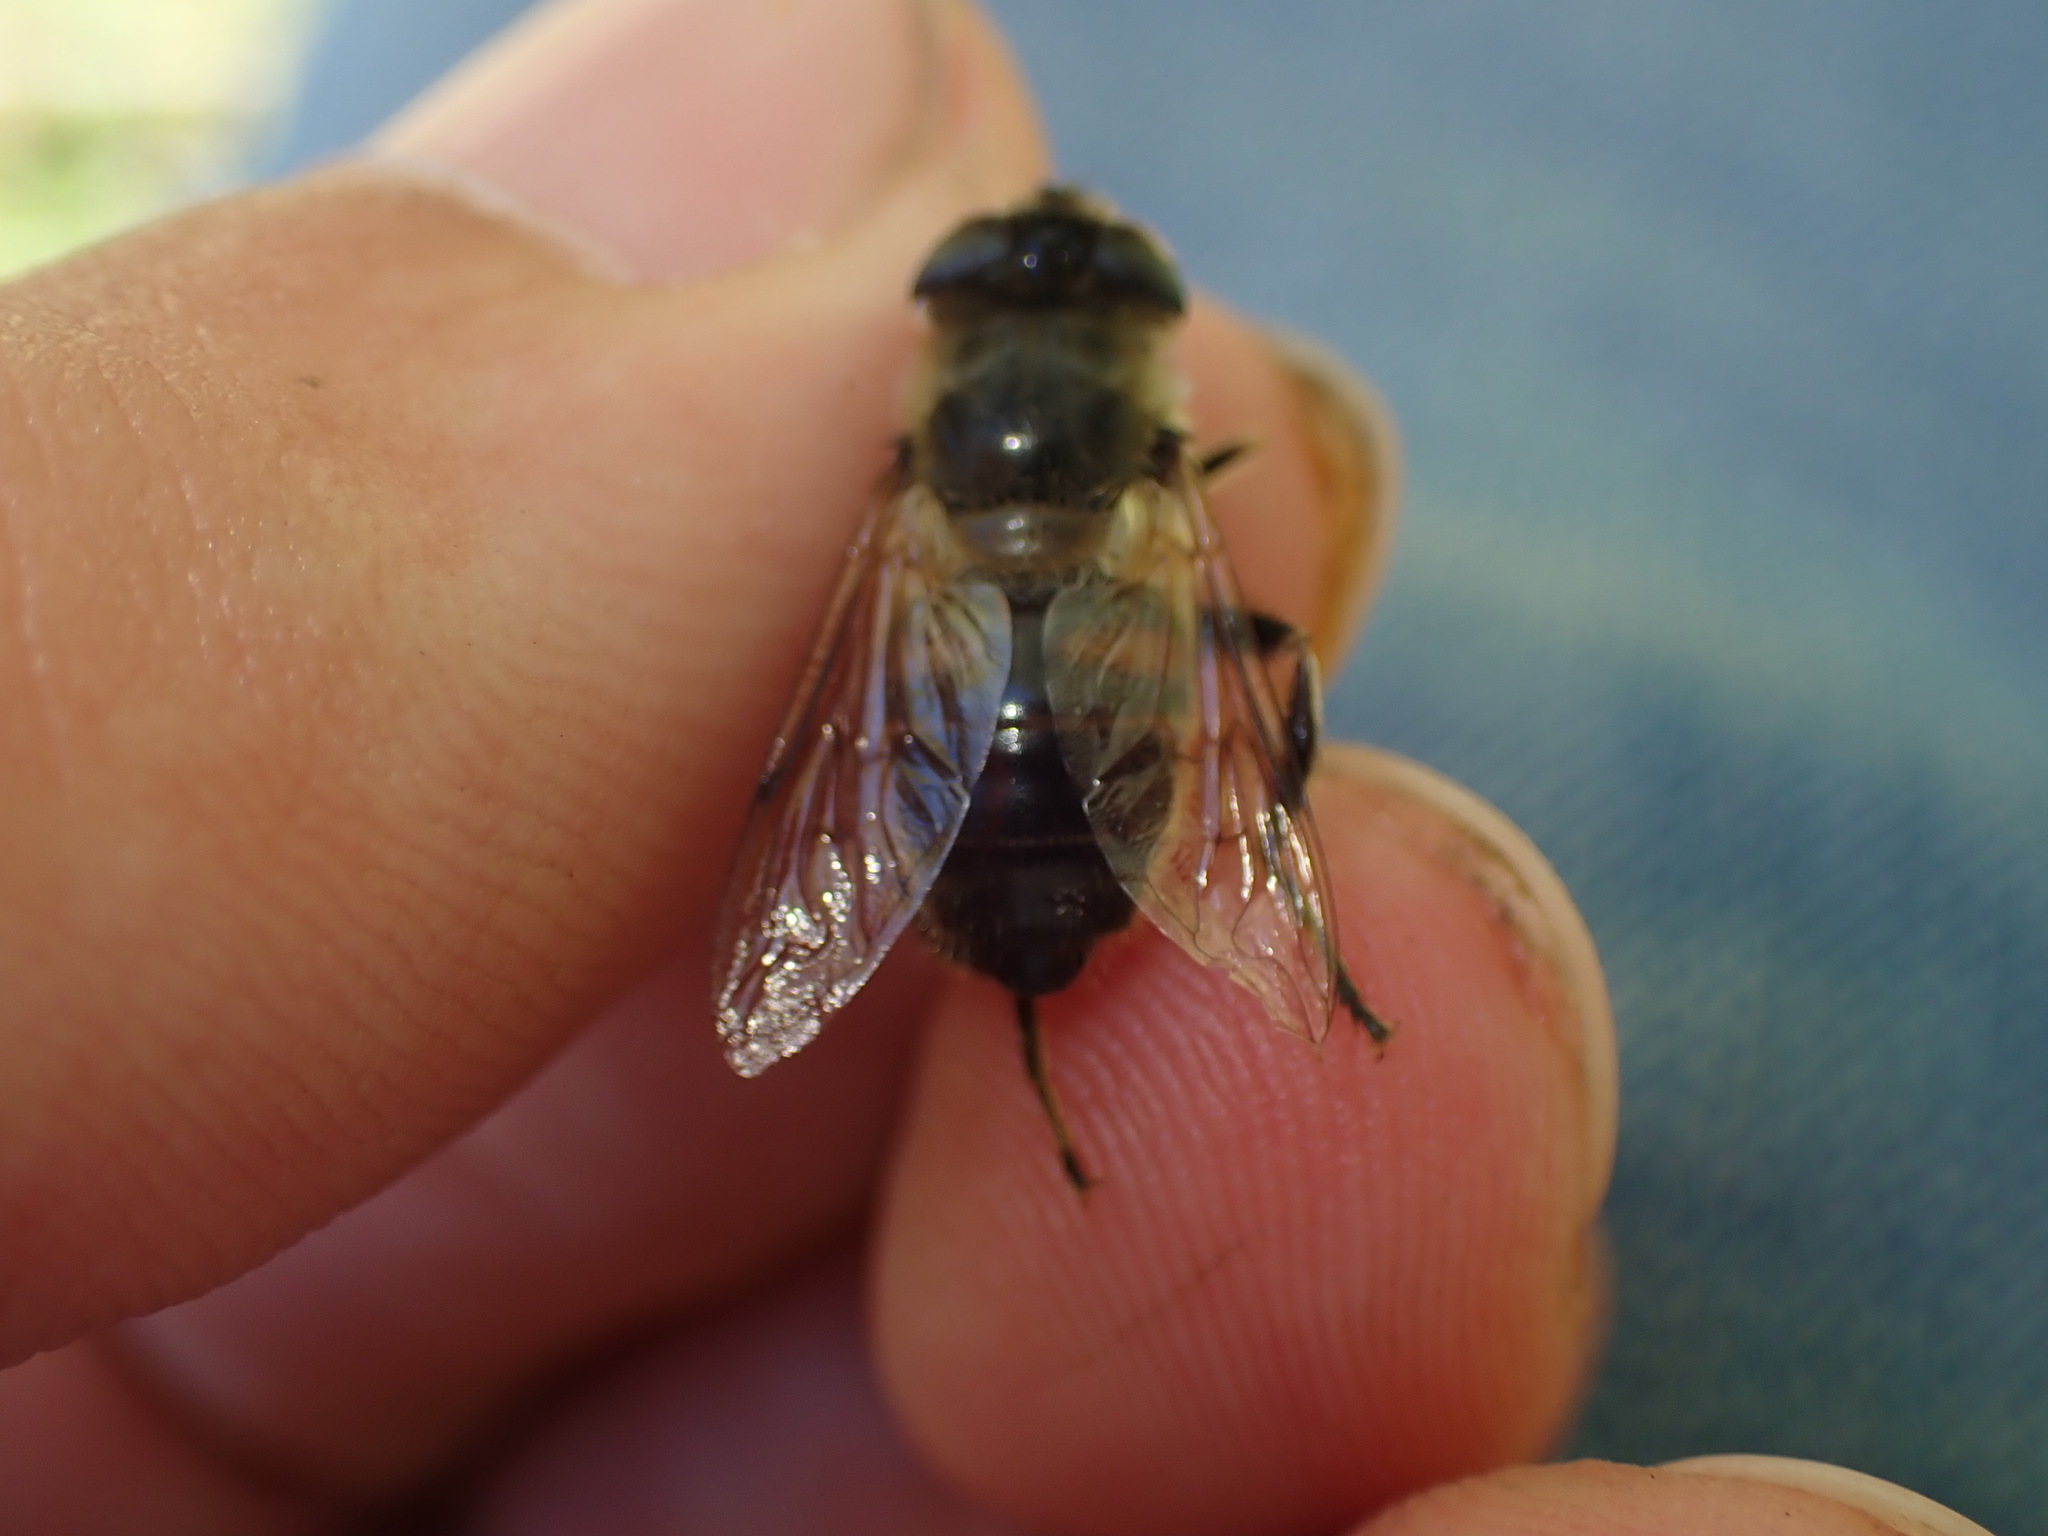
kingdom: Animalia
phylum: Arthropoda
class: Insecta
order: Diptera
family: Syrphidae
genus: Eristalis
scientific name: Eristalis tenax
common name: Drone fly
